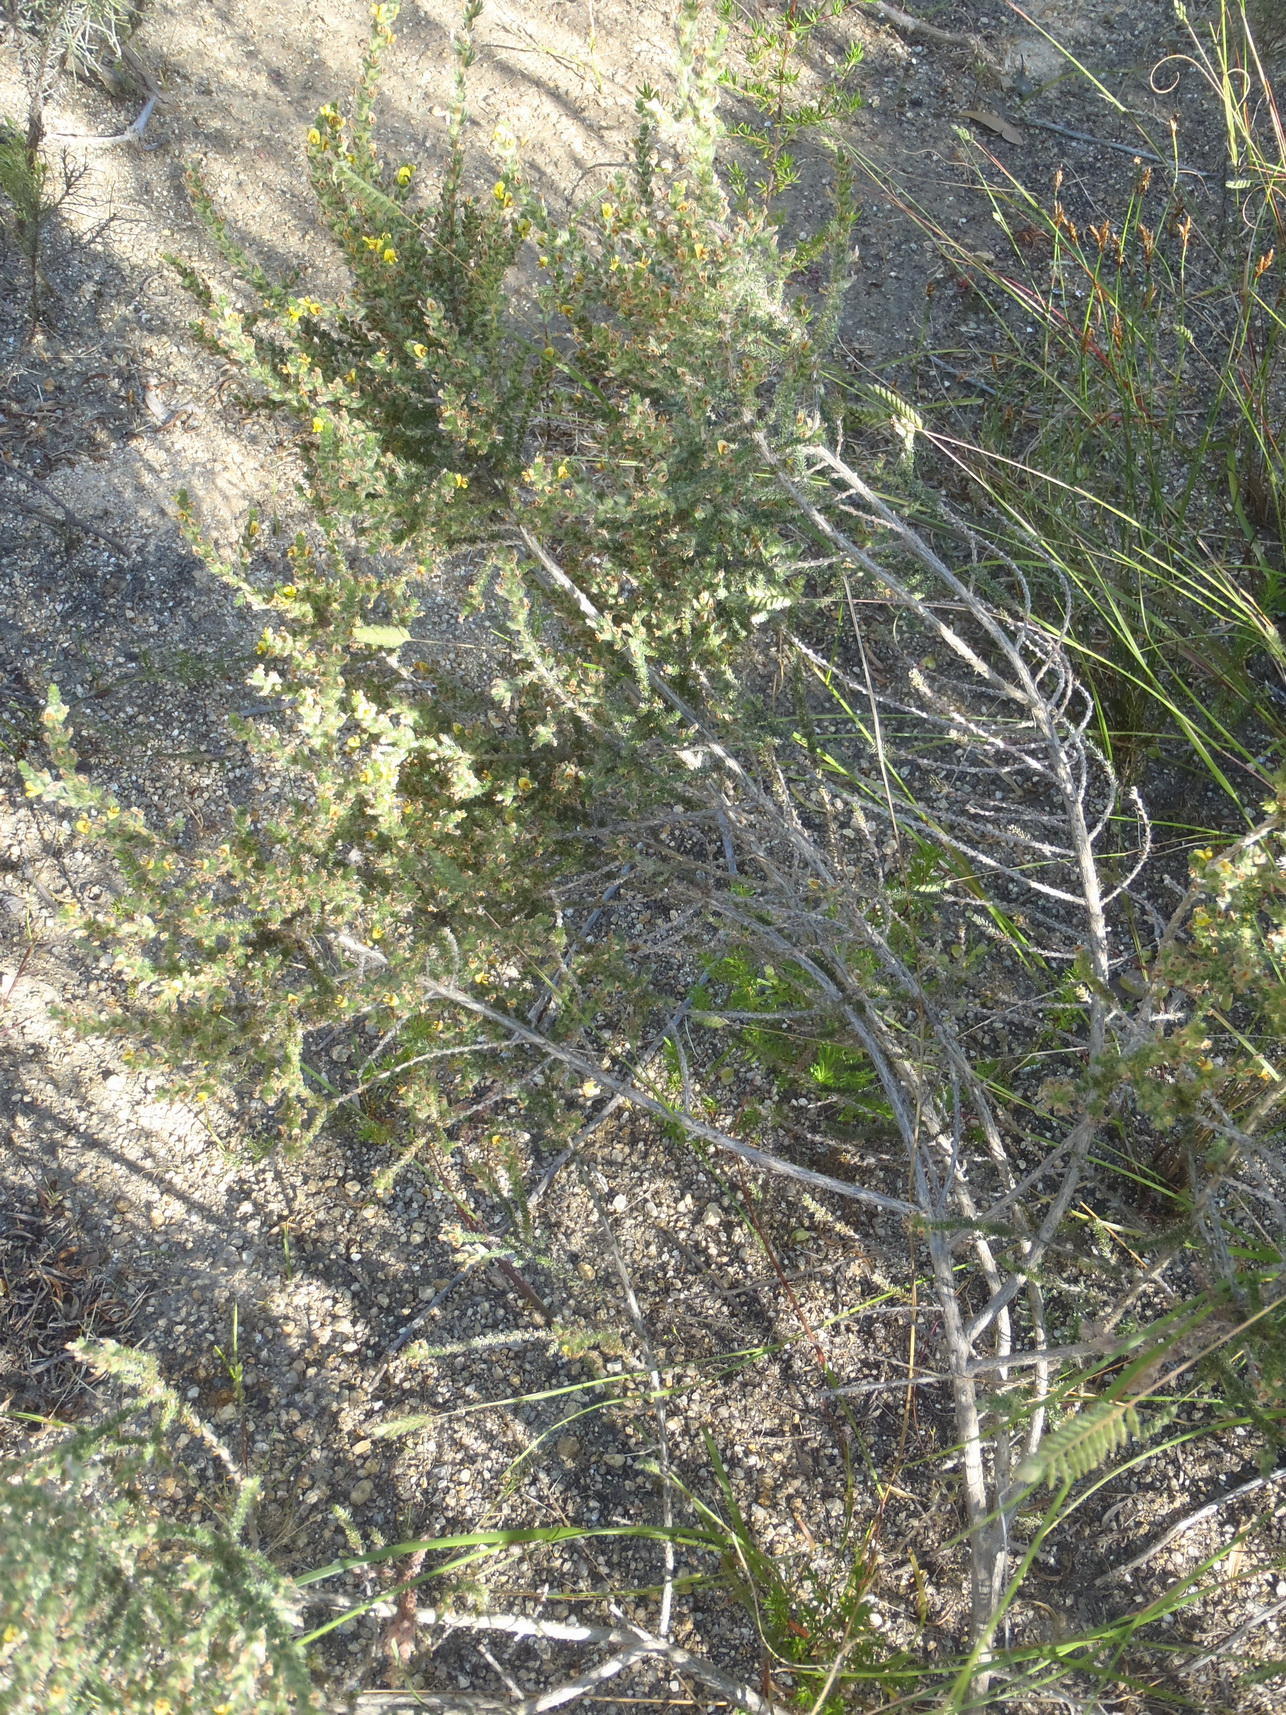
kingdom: Plantae
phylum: Tracheophyta
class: Magnoliopsida
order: Fabales
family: Fabaceae
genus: Aspalathus
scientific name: Aspalathus flexuosa
